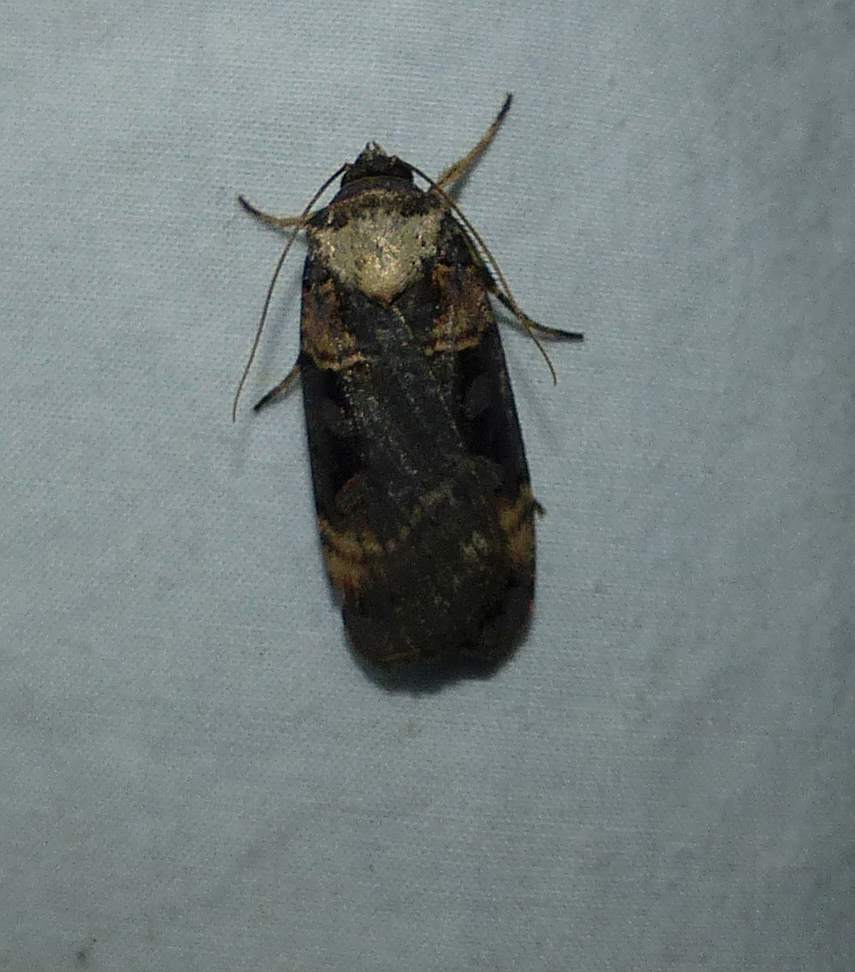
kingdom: Animalia
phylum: Arthropoda
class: Insecta
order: Lepidoptera
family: Noctuidae
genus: Pseudohermonassa
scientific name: Pseudohermonassa bicarnea
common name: Pink spotted dart
